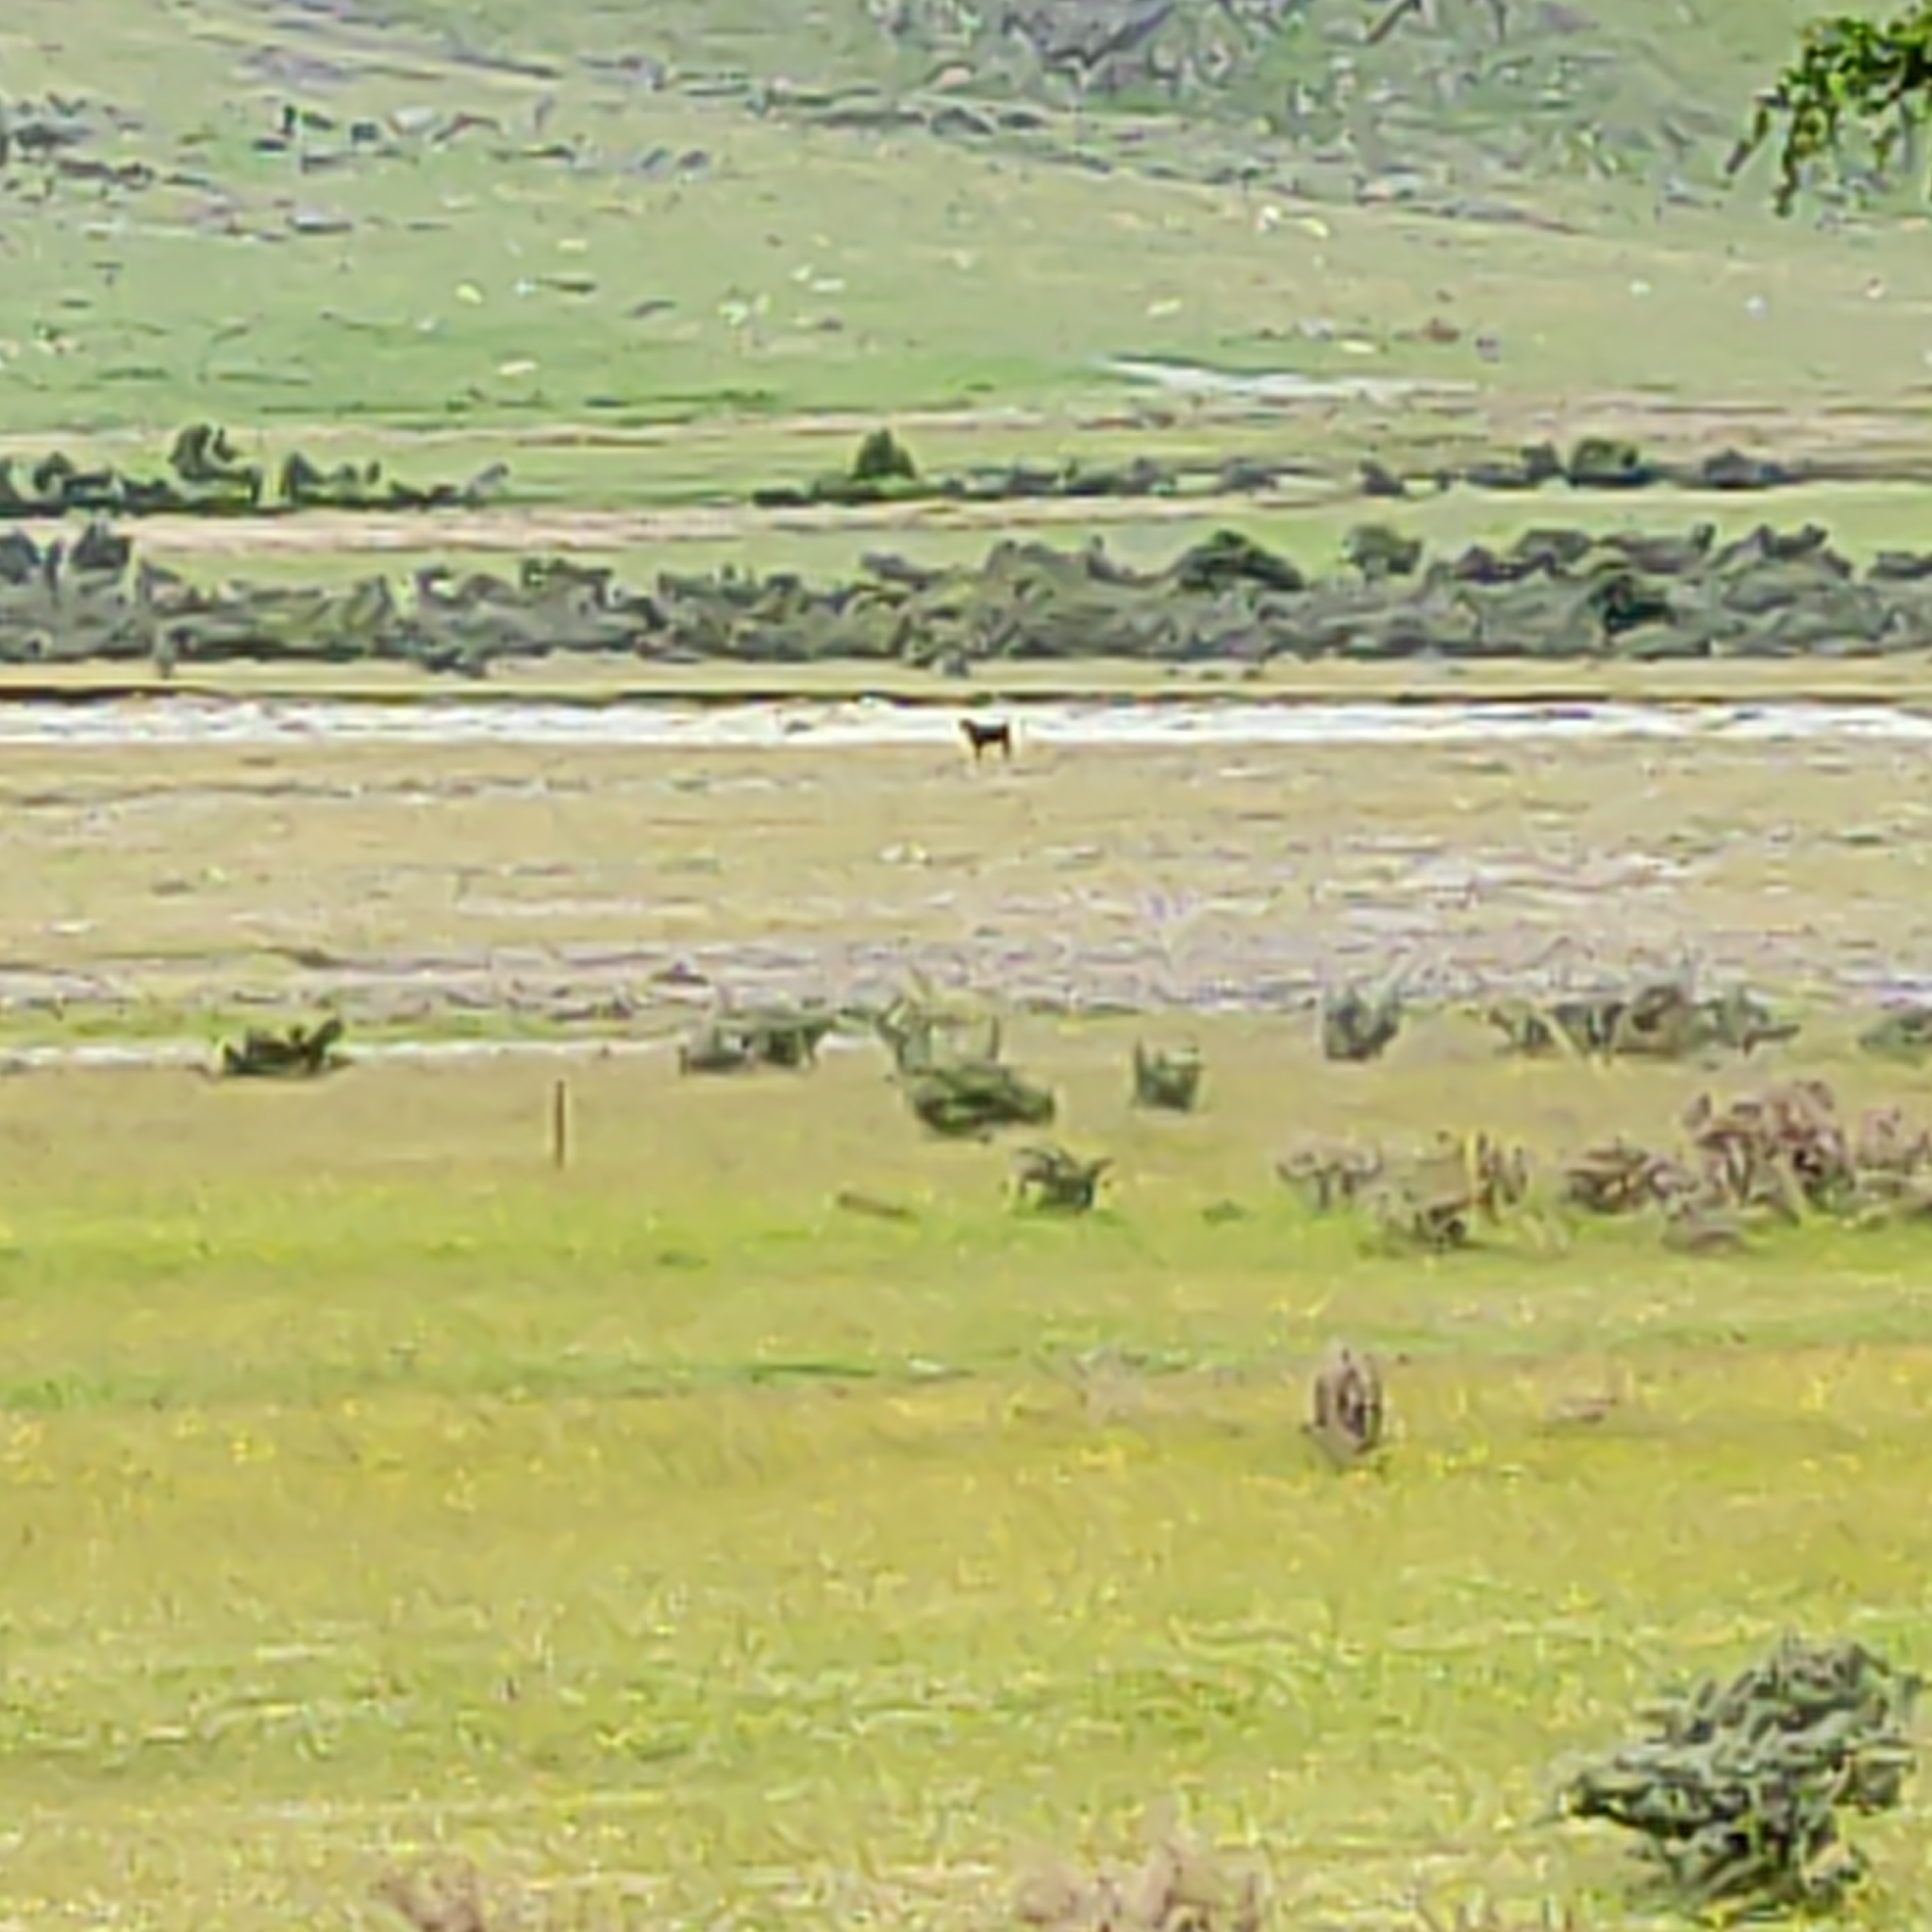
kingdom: Animalia
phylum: Chordata
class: Mammalia
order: Artiodactyla
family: Bovidae
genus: Bos
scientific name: Bos taurus
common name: Domesticated cattle
